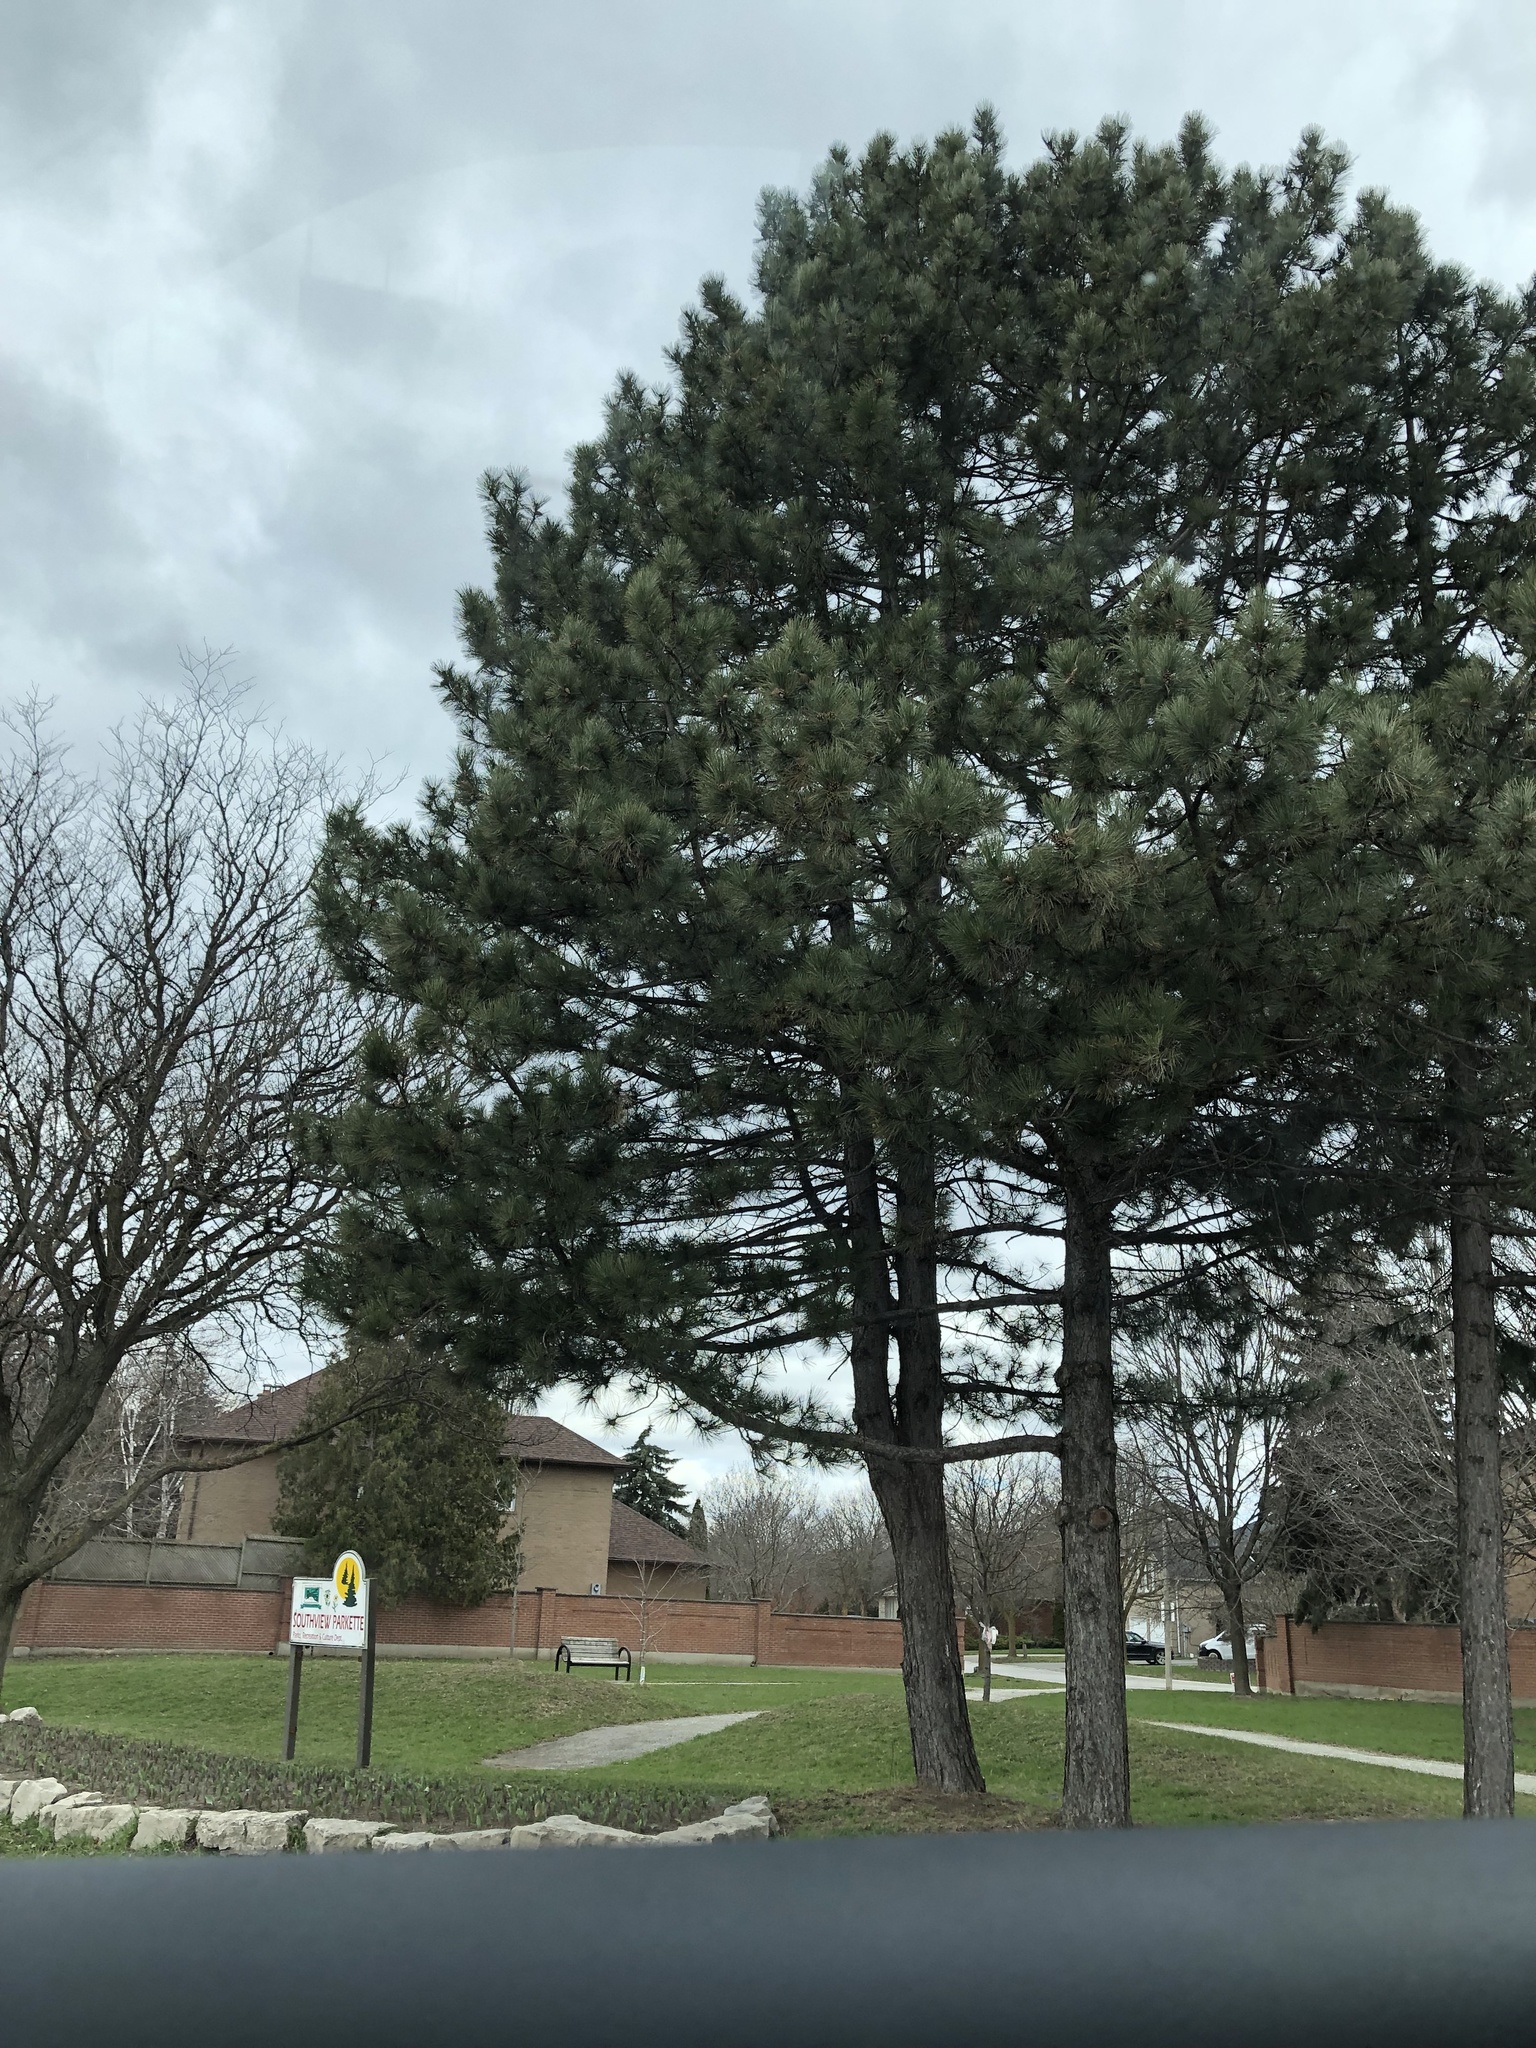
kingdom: Plantae
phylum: Tracheophyta
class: Pinopsida
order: Pinales
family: Pinaceae
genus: Pinus
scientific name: Pinus nigra
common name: Austrian pine
